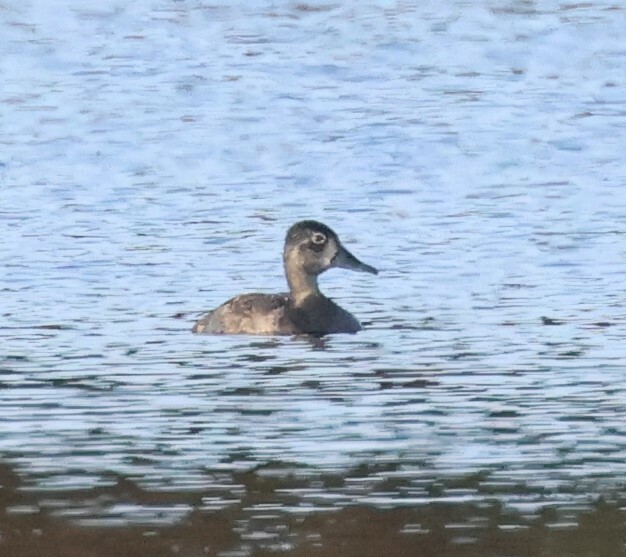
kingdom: Animalia
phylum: Chordata
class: Aves
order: Anseriformes
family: Anatidae
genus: Aythya
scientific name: Aythya collaris
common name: Ring-necked duck
